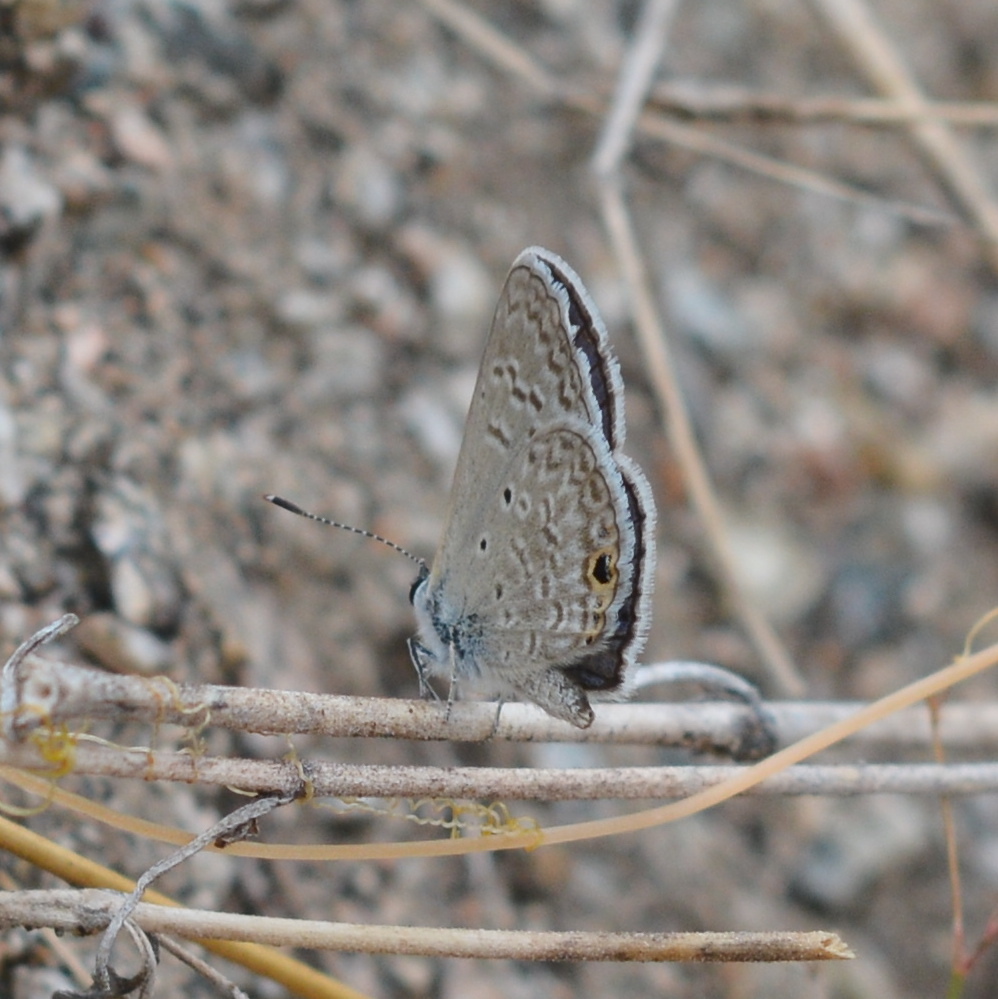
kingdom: Animalia
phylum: Arthropoda
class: Insecta
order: Lepidoptera
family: Lycaenidae
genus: Hemiargus
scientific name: Hemiargus ceraunus
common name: Ceraunus blue
